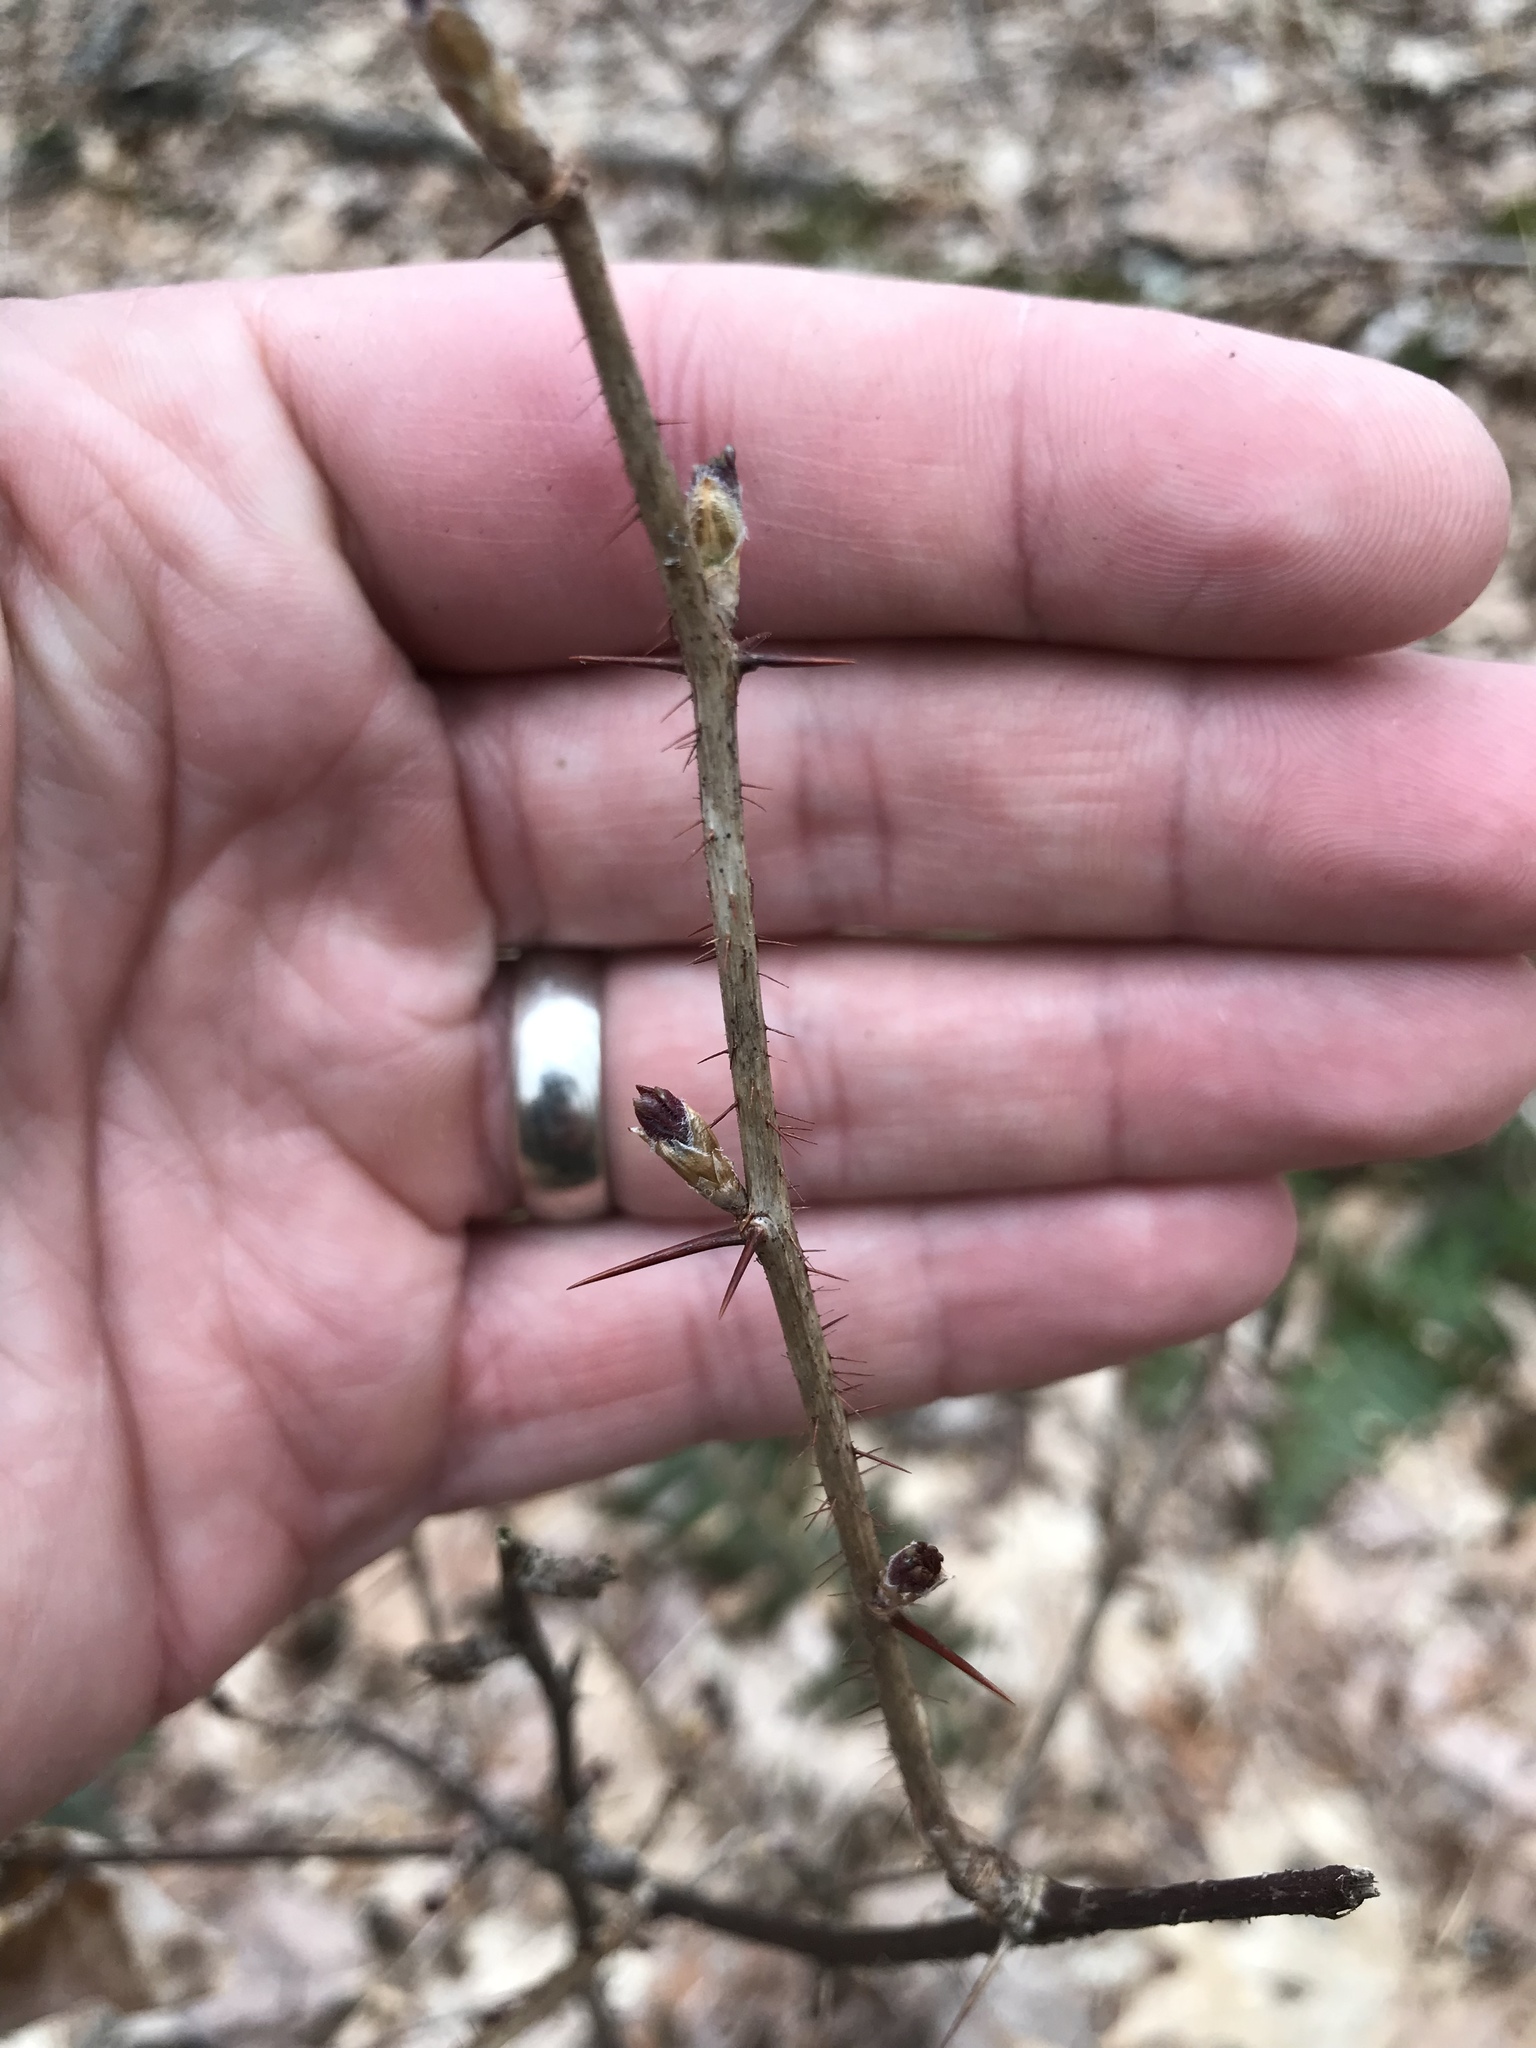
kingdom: Plantae
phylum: Tracheophyta
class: Magnoliopsida
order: Saxifragales
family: Grossulariaceae
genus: Ribes
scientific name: Ribes cynosbati
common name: American gooseberry
